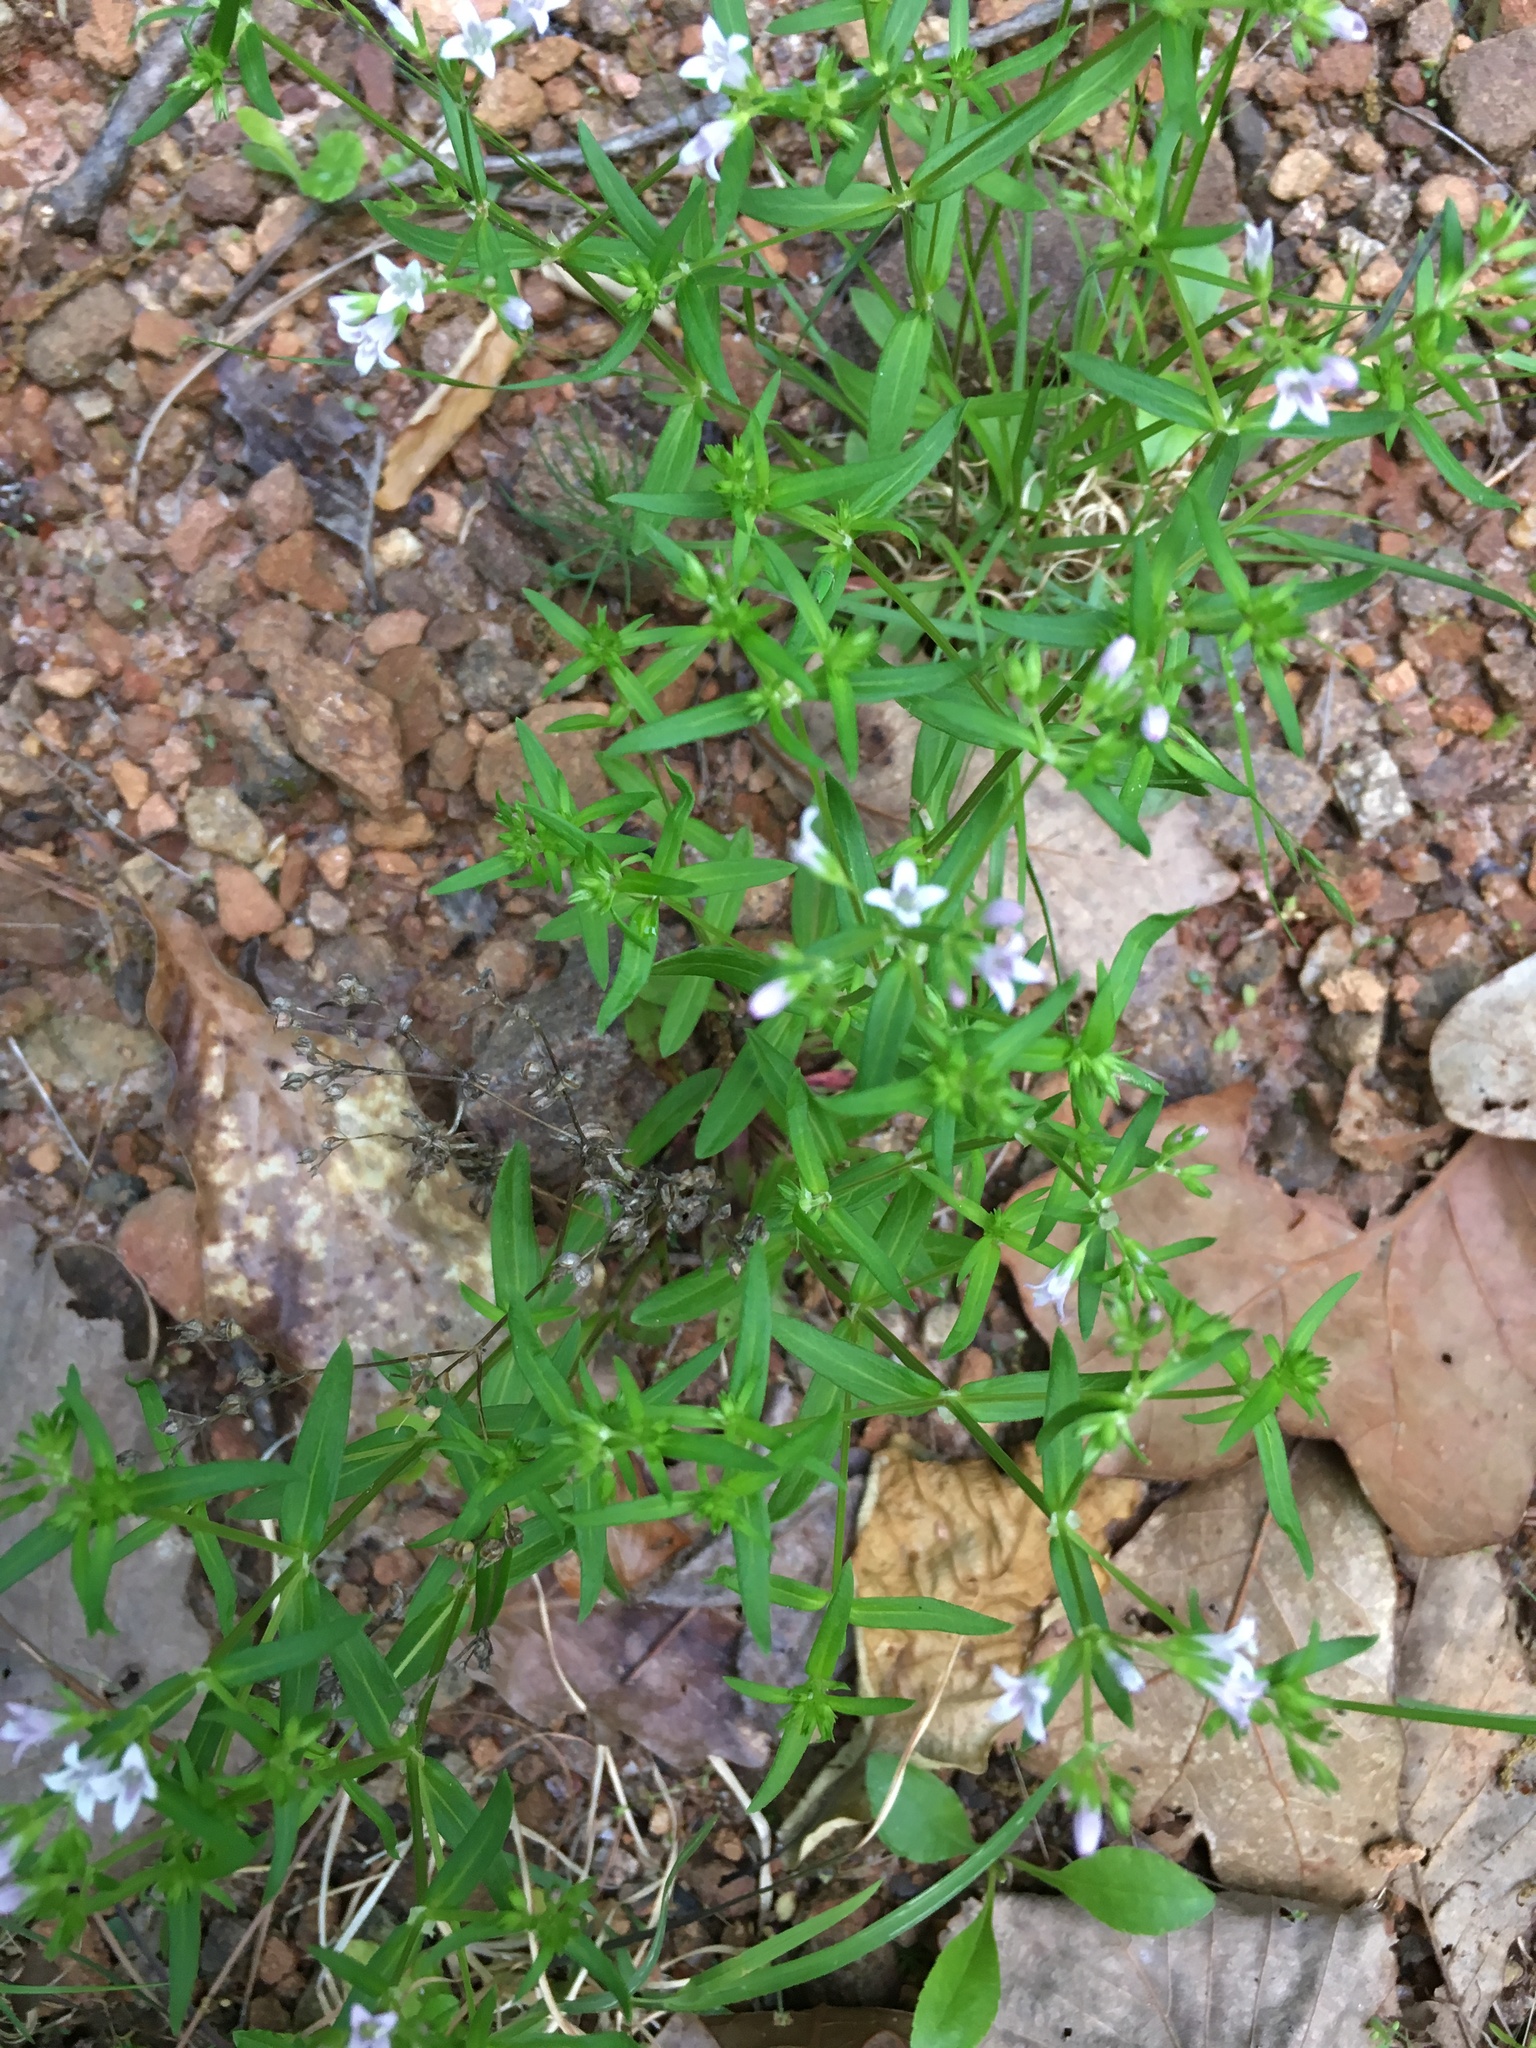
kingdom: Plantae
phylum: Tracheophyta
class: Magnoliopsida
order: Gentianales
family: Rubiaceae
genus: Sherardia
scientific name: Sherardia arvensis
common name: Field madder
